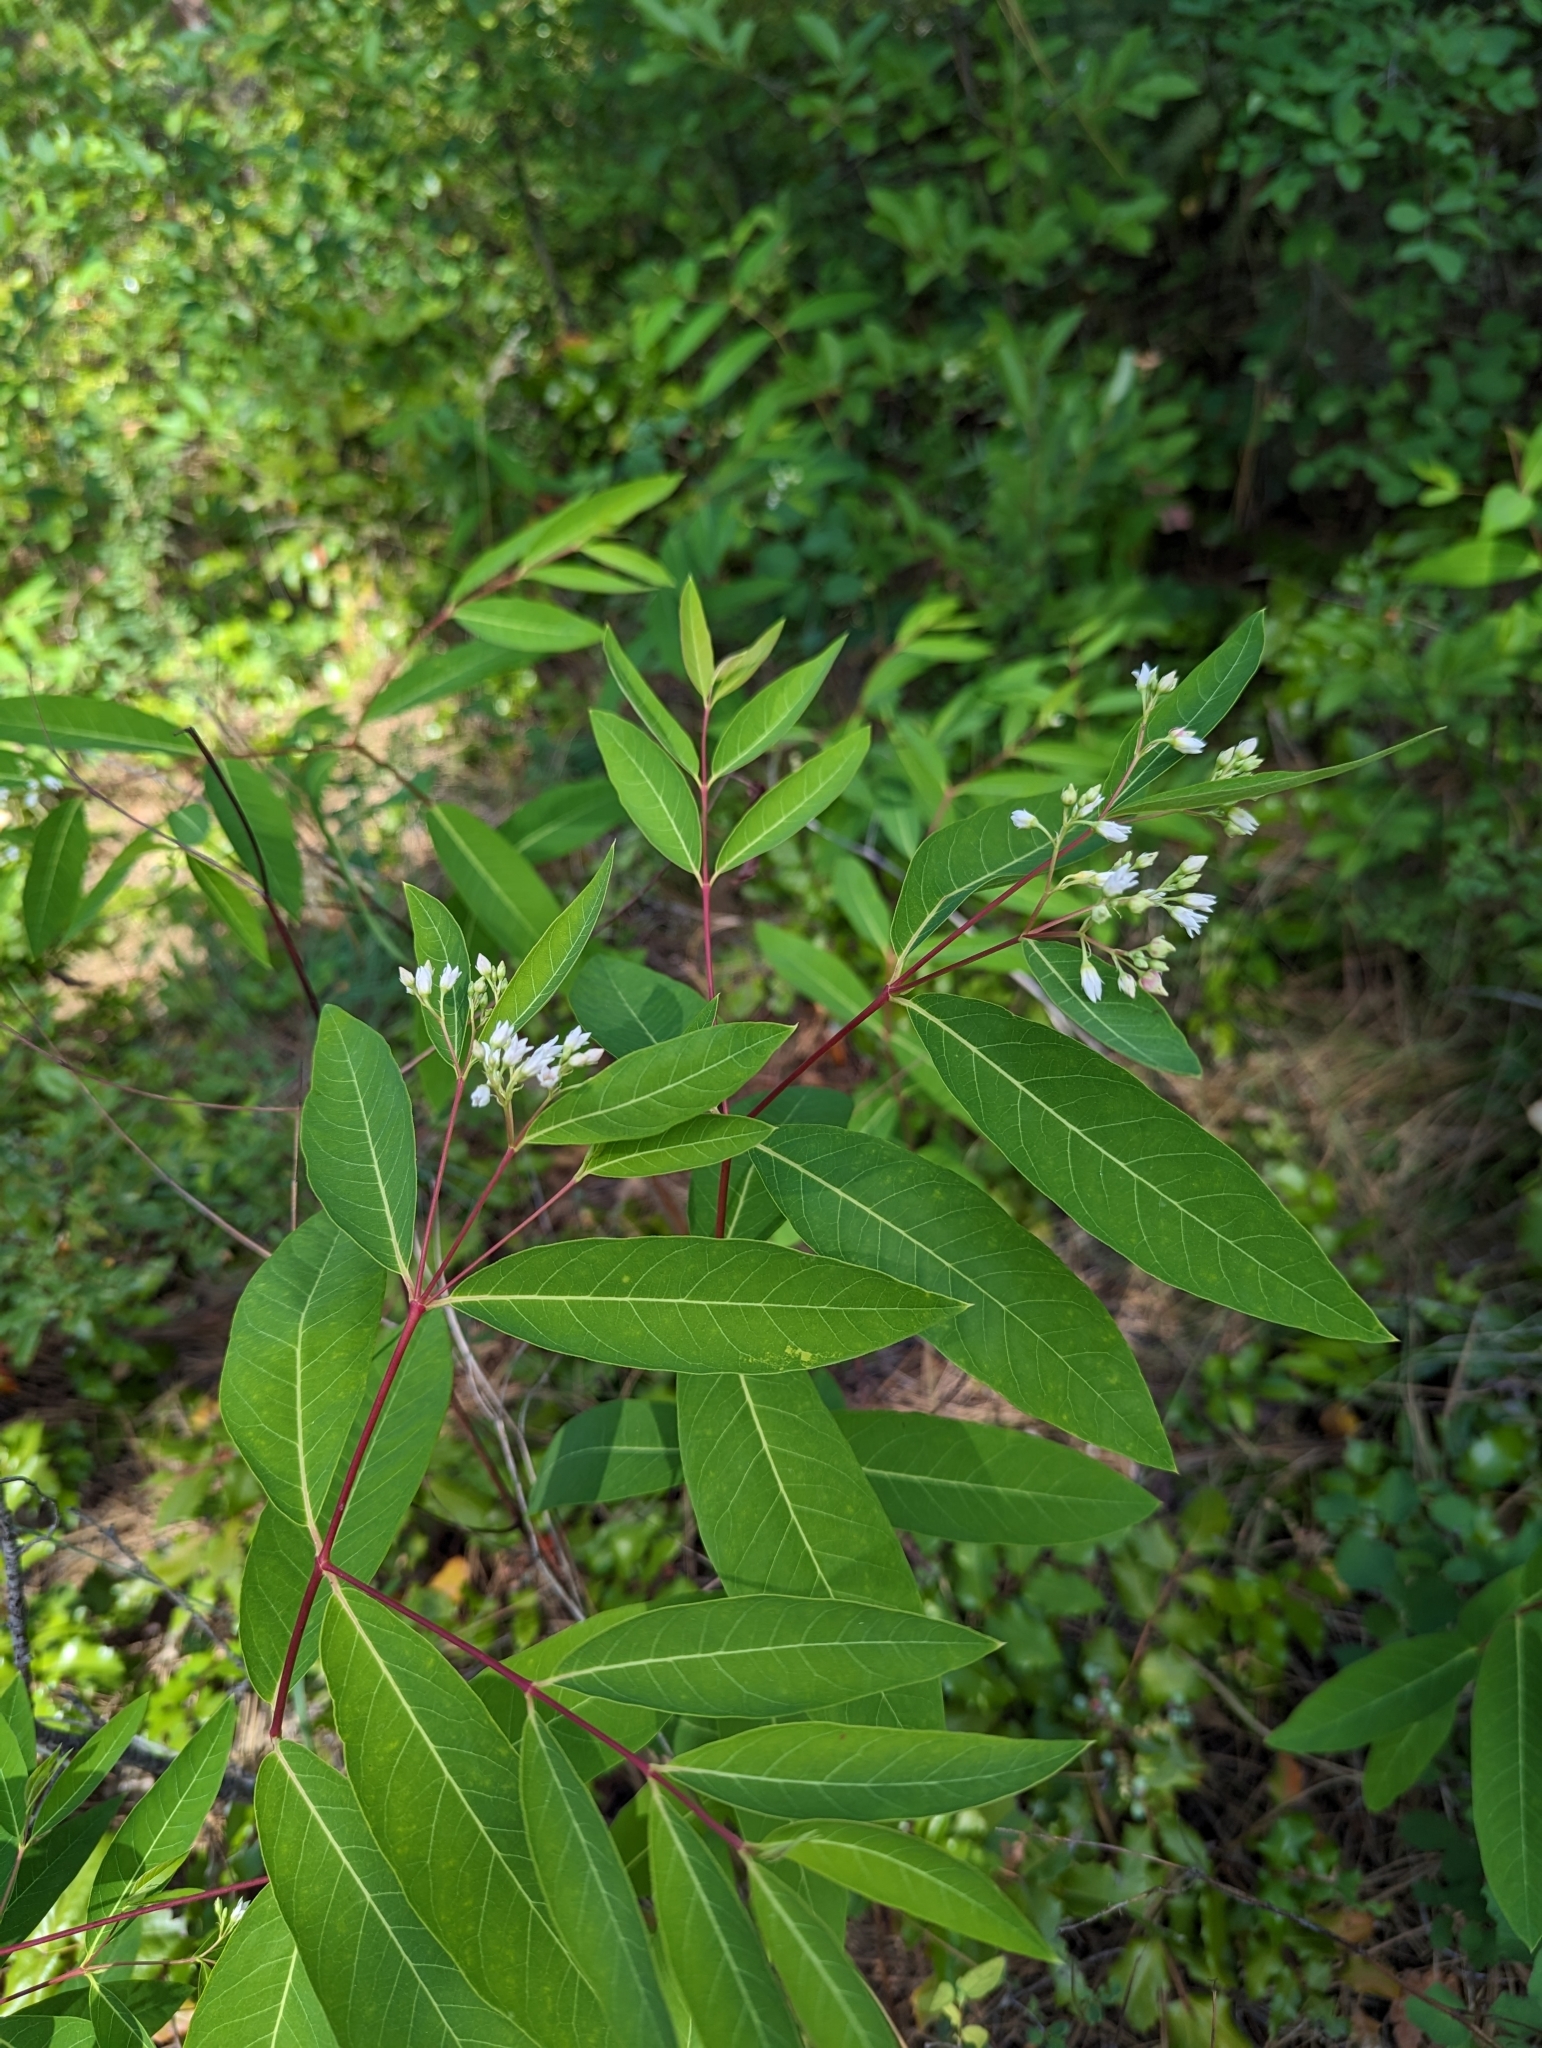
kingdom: Plantae
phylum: Tracheophyta
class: Magnoliopsida
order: Gentianales
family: Apocynaceae
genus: Apocynum
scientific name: Apocynum cannabinum
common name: Hemp dogbane
